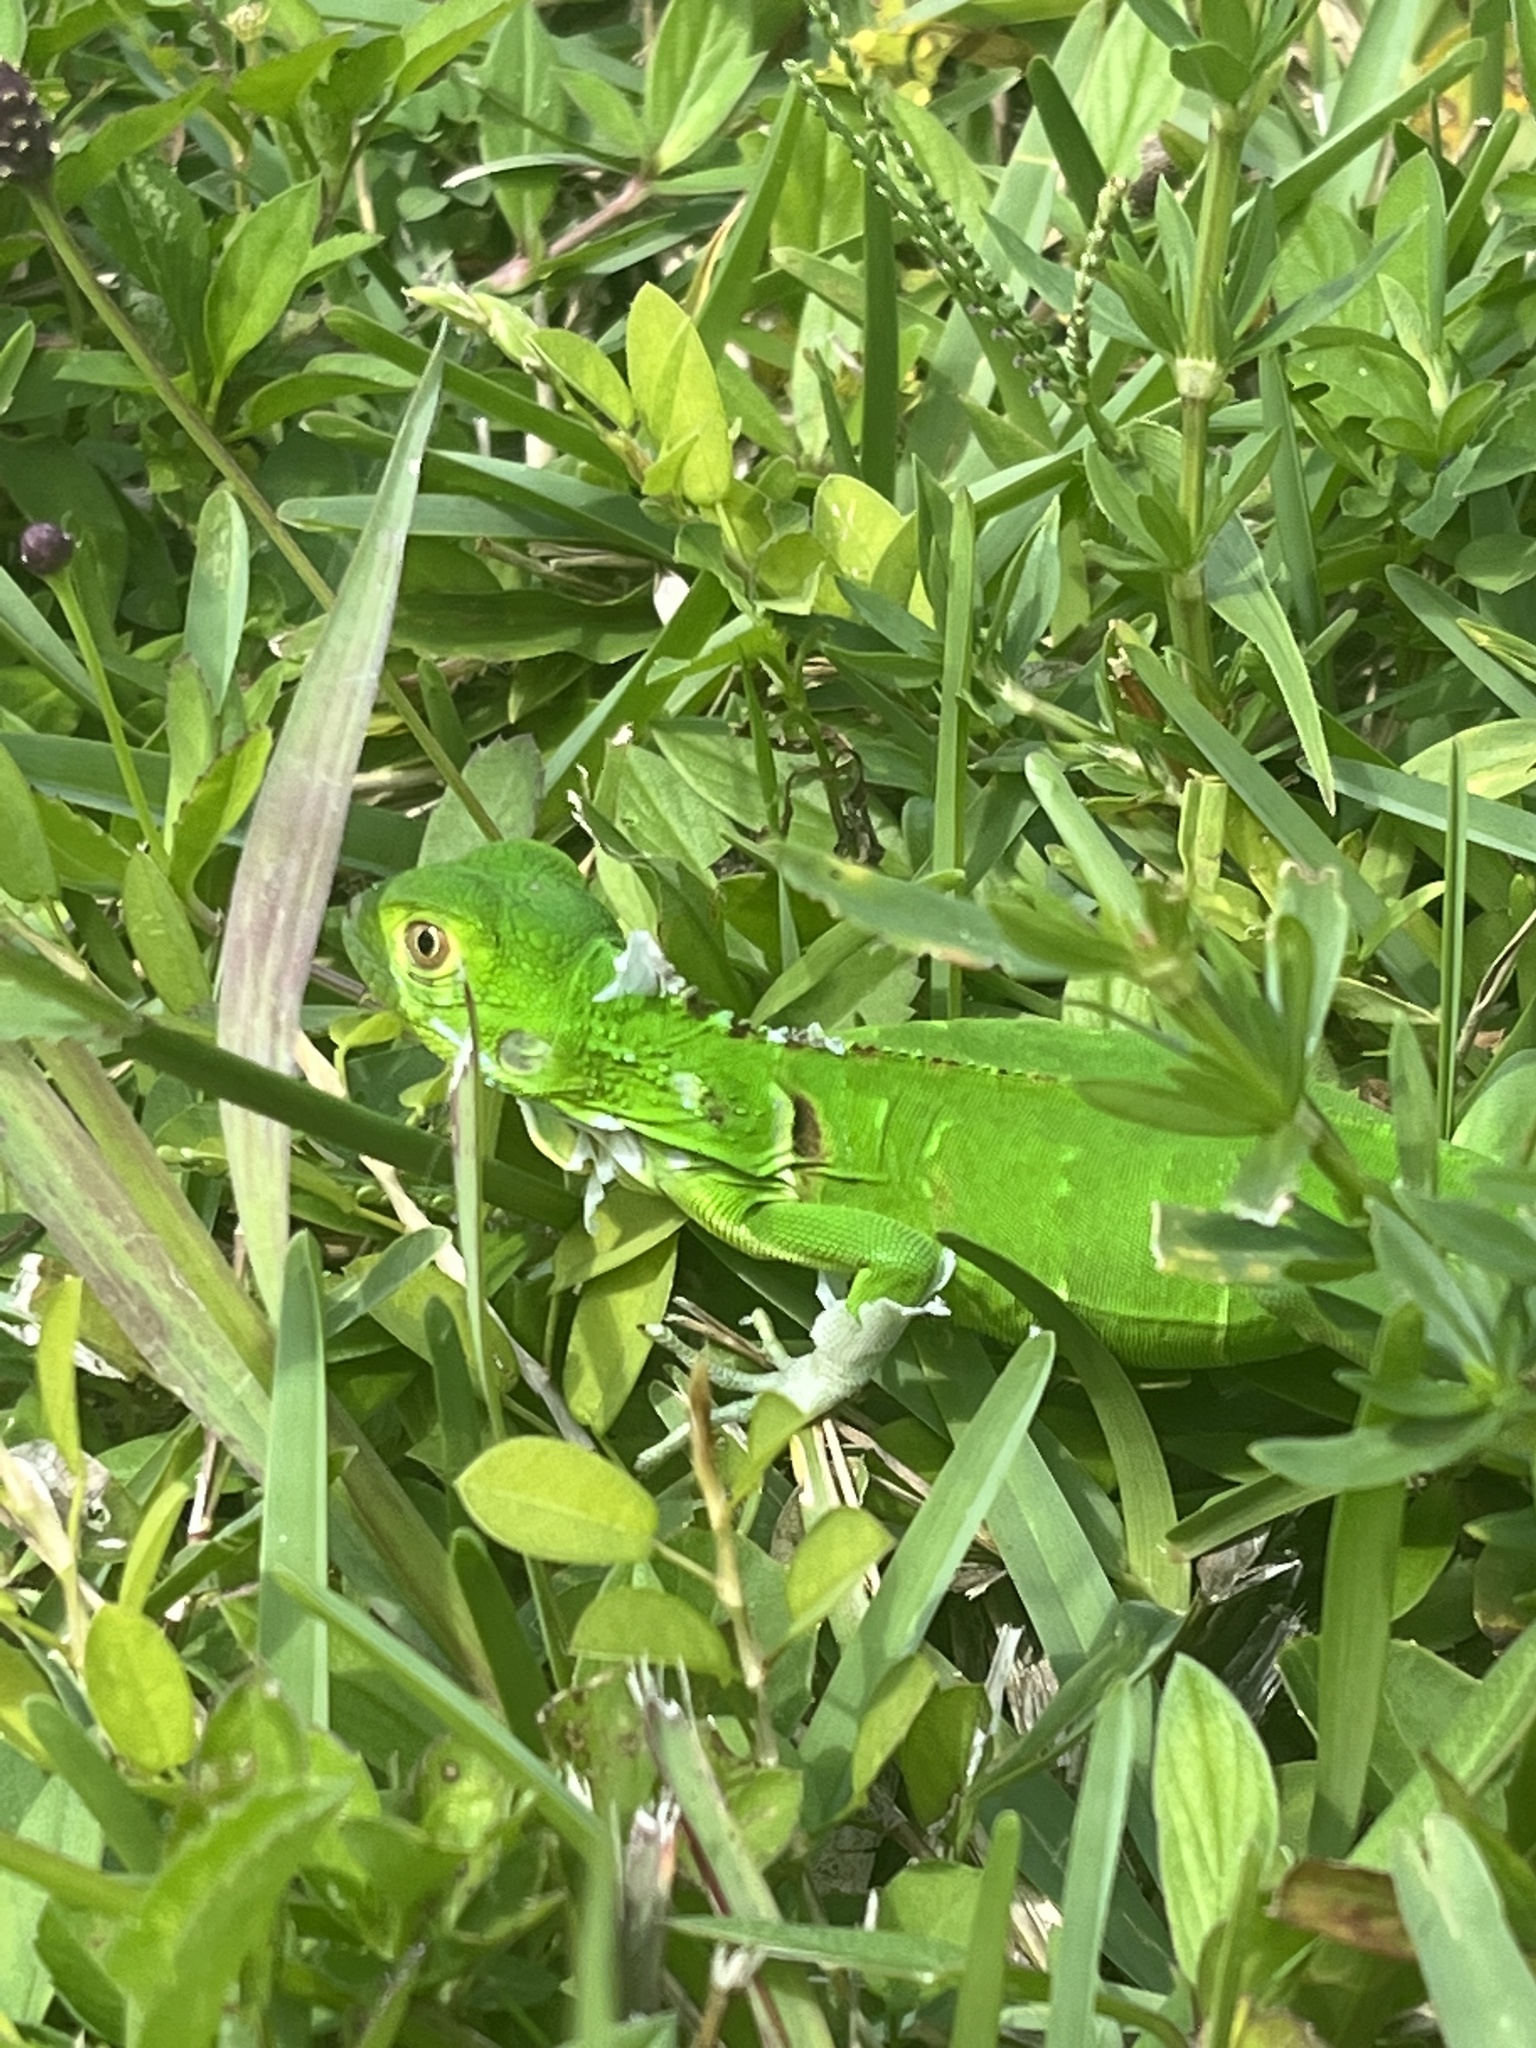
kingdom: Animalia
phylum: Chordata
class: Squamata
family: Iguanidae
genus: Iguana
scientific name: Iguana iguana
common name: Green iguana
